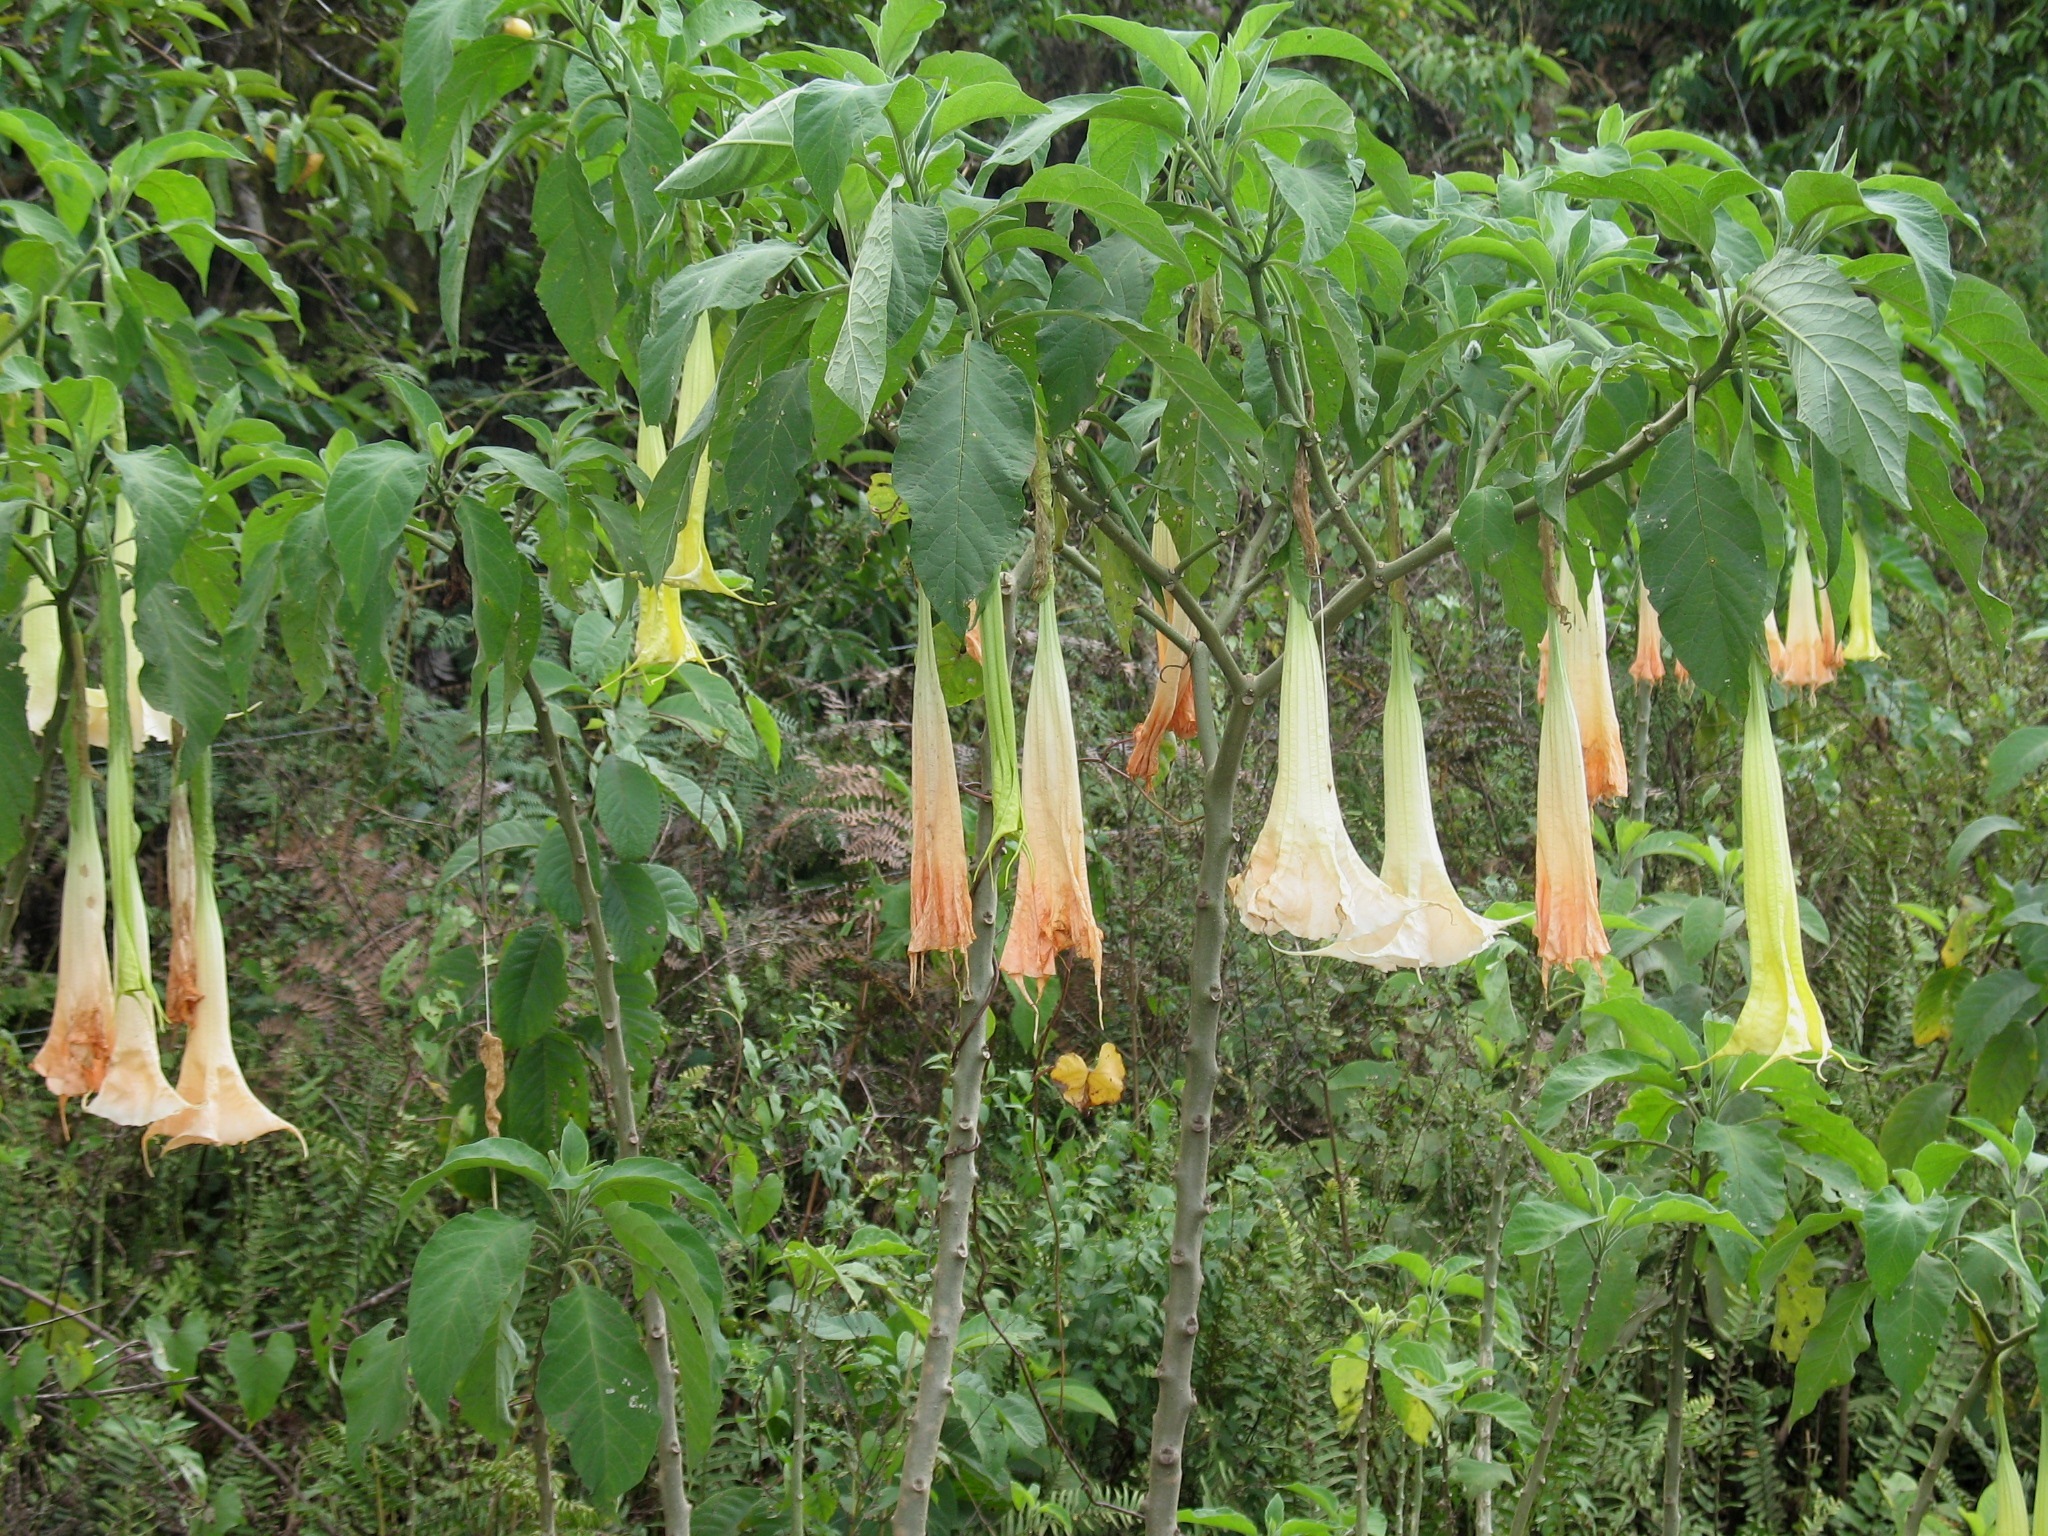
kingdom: Plantae
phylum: Tracheophyta
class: Magnoliopsida
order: Solanales
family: Solanaceae
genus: Brugmansia
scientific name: Brugmansia candida
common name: Angel's-trumpet
